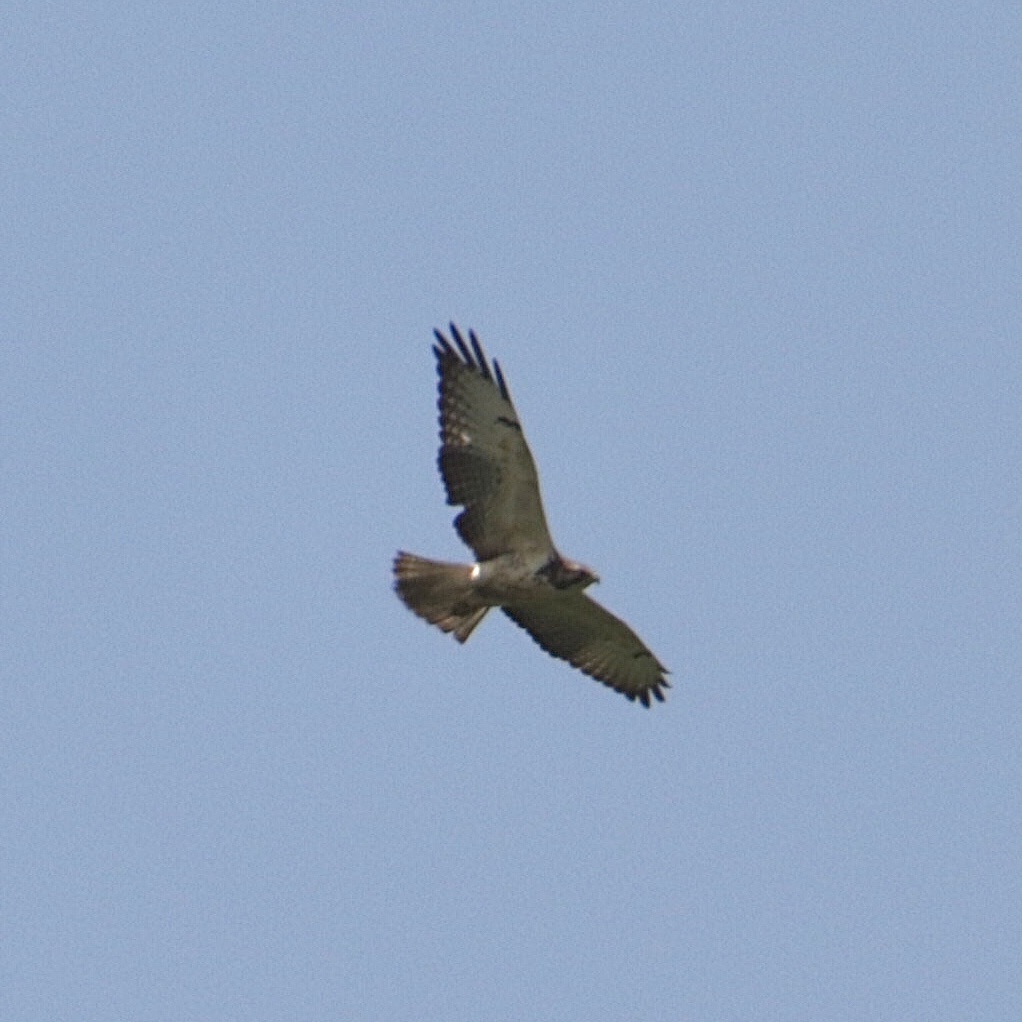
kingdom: Animalia
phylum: Chordata
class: Aves
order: Accipitriformes
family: Accipitridae
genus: Buteo
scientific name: Buteo swainsoni
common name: Swainson's hawk
